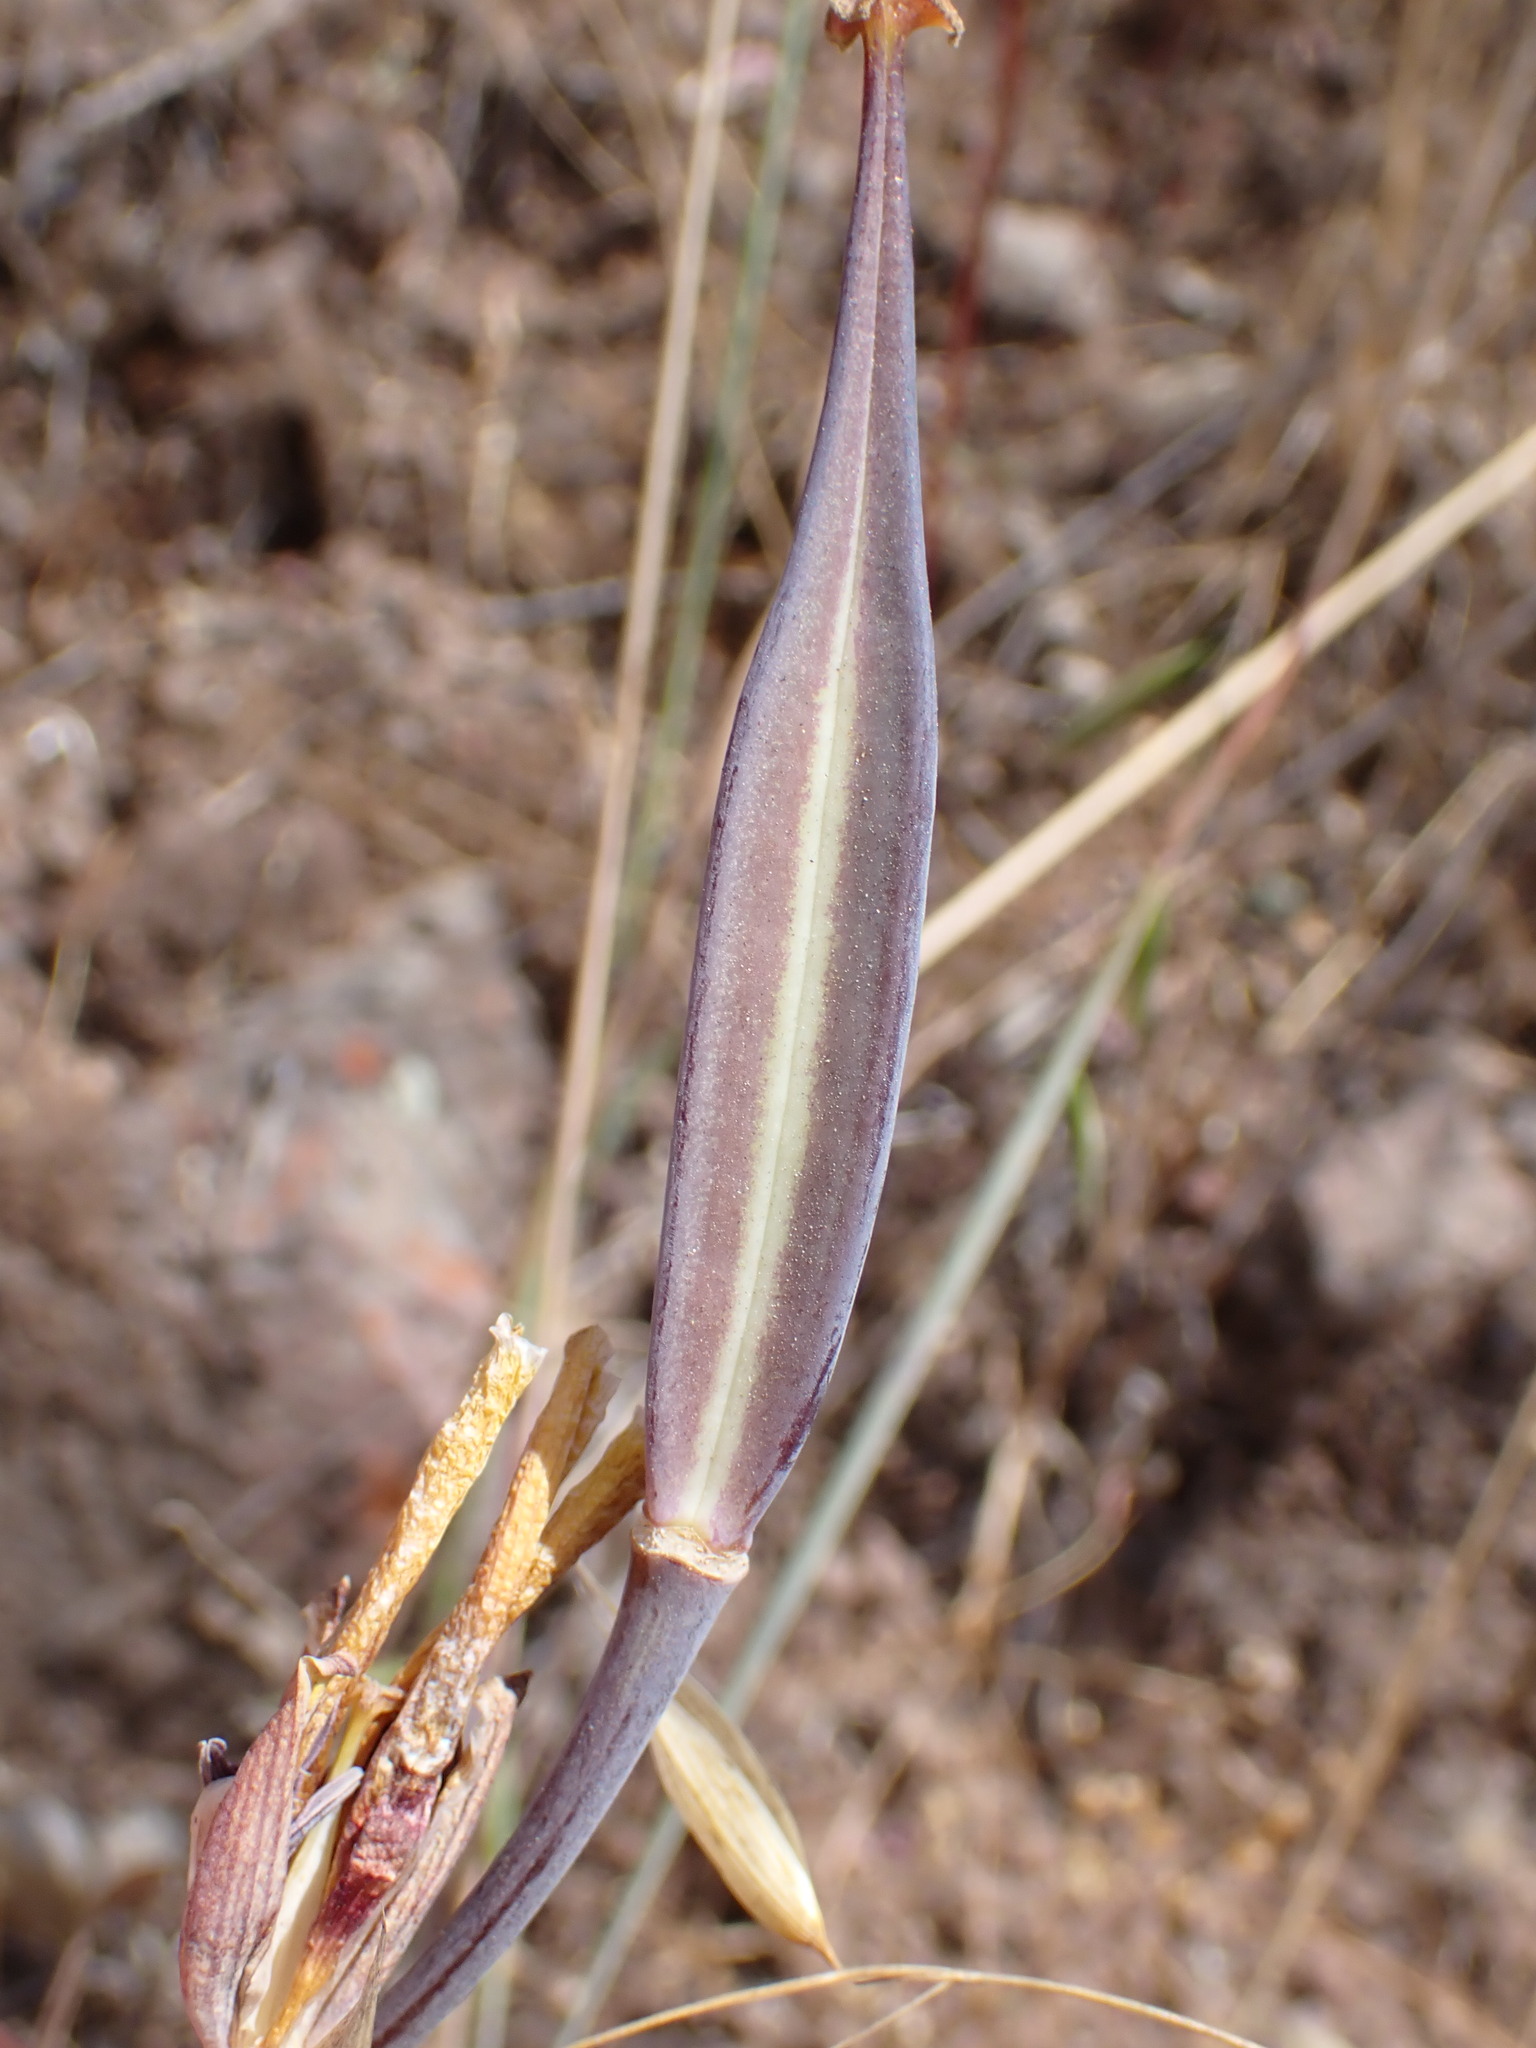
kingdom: Plantae
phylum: Tracheophyta
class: Liliopsida
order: Liliales
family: Liliaceae
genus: Calochortus
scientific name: Calochortus clavatus
